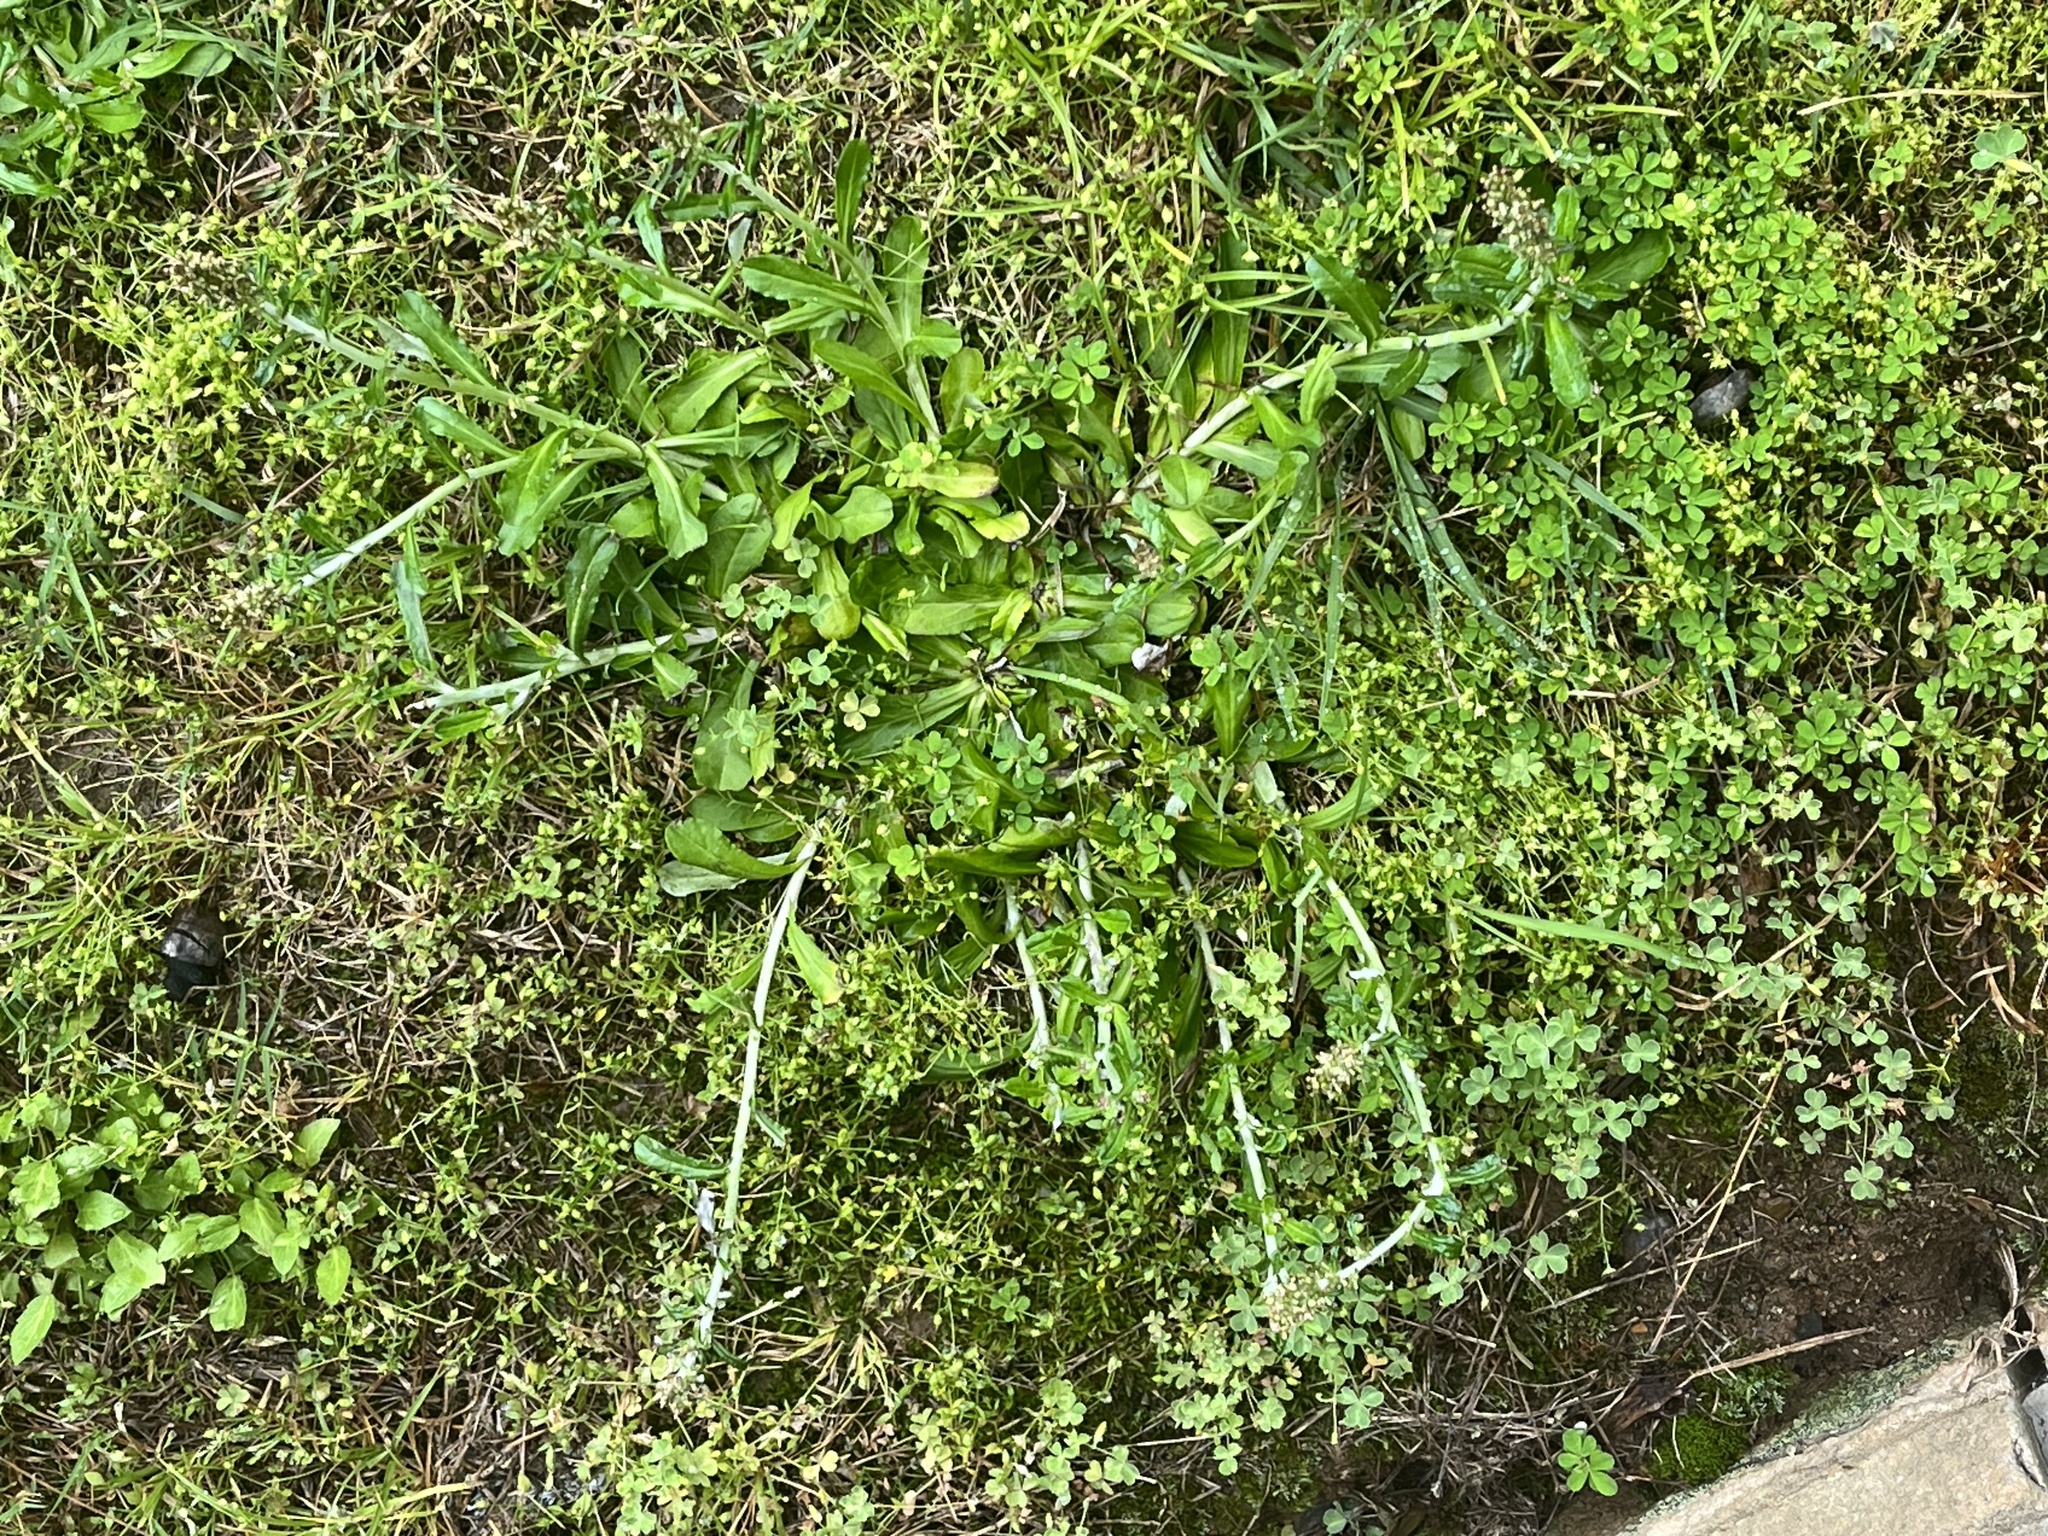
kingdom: Plantae
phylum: Tracheophyta
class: Magnoliopsida
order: Asterales
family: Asteraceae
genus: Gamochaeta
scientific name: Gamochaeta americana
